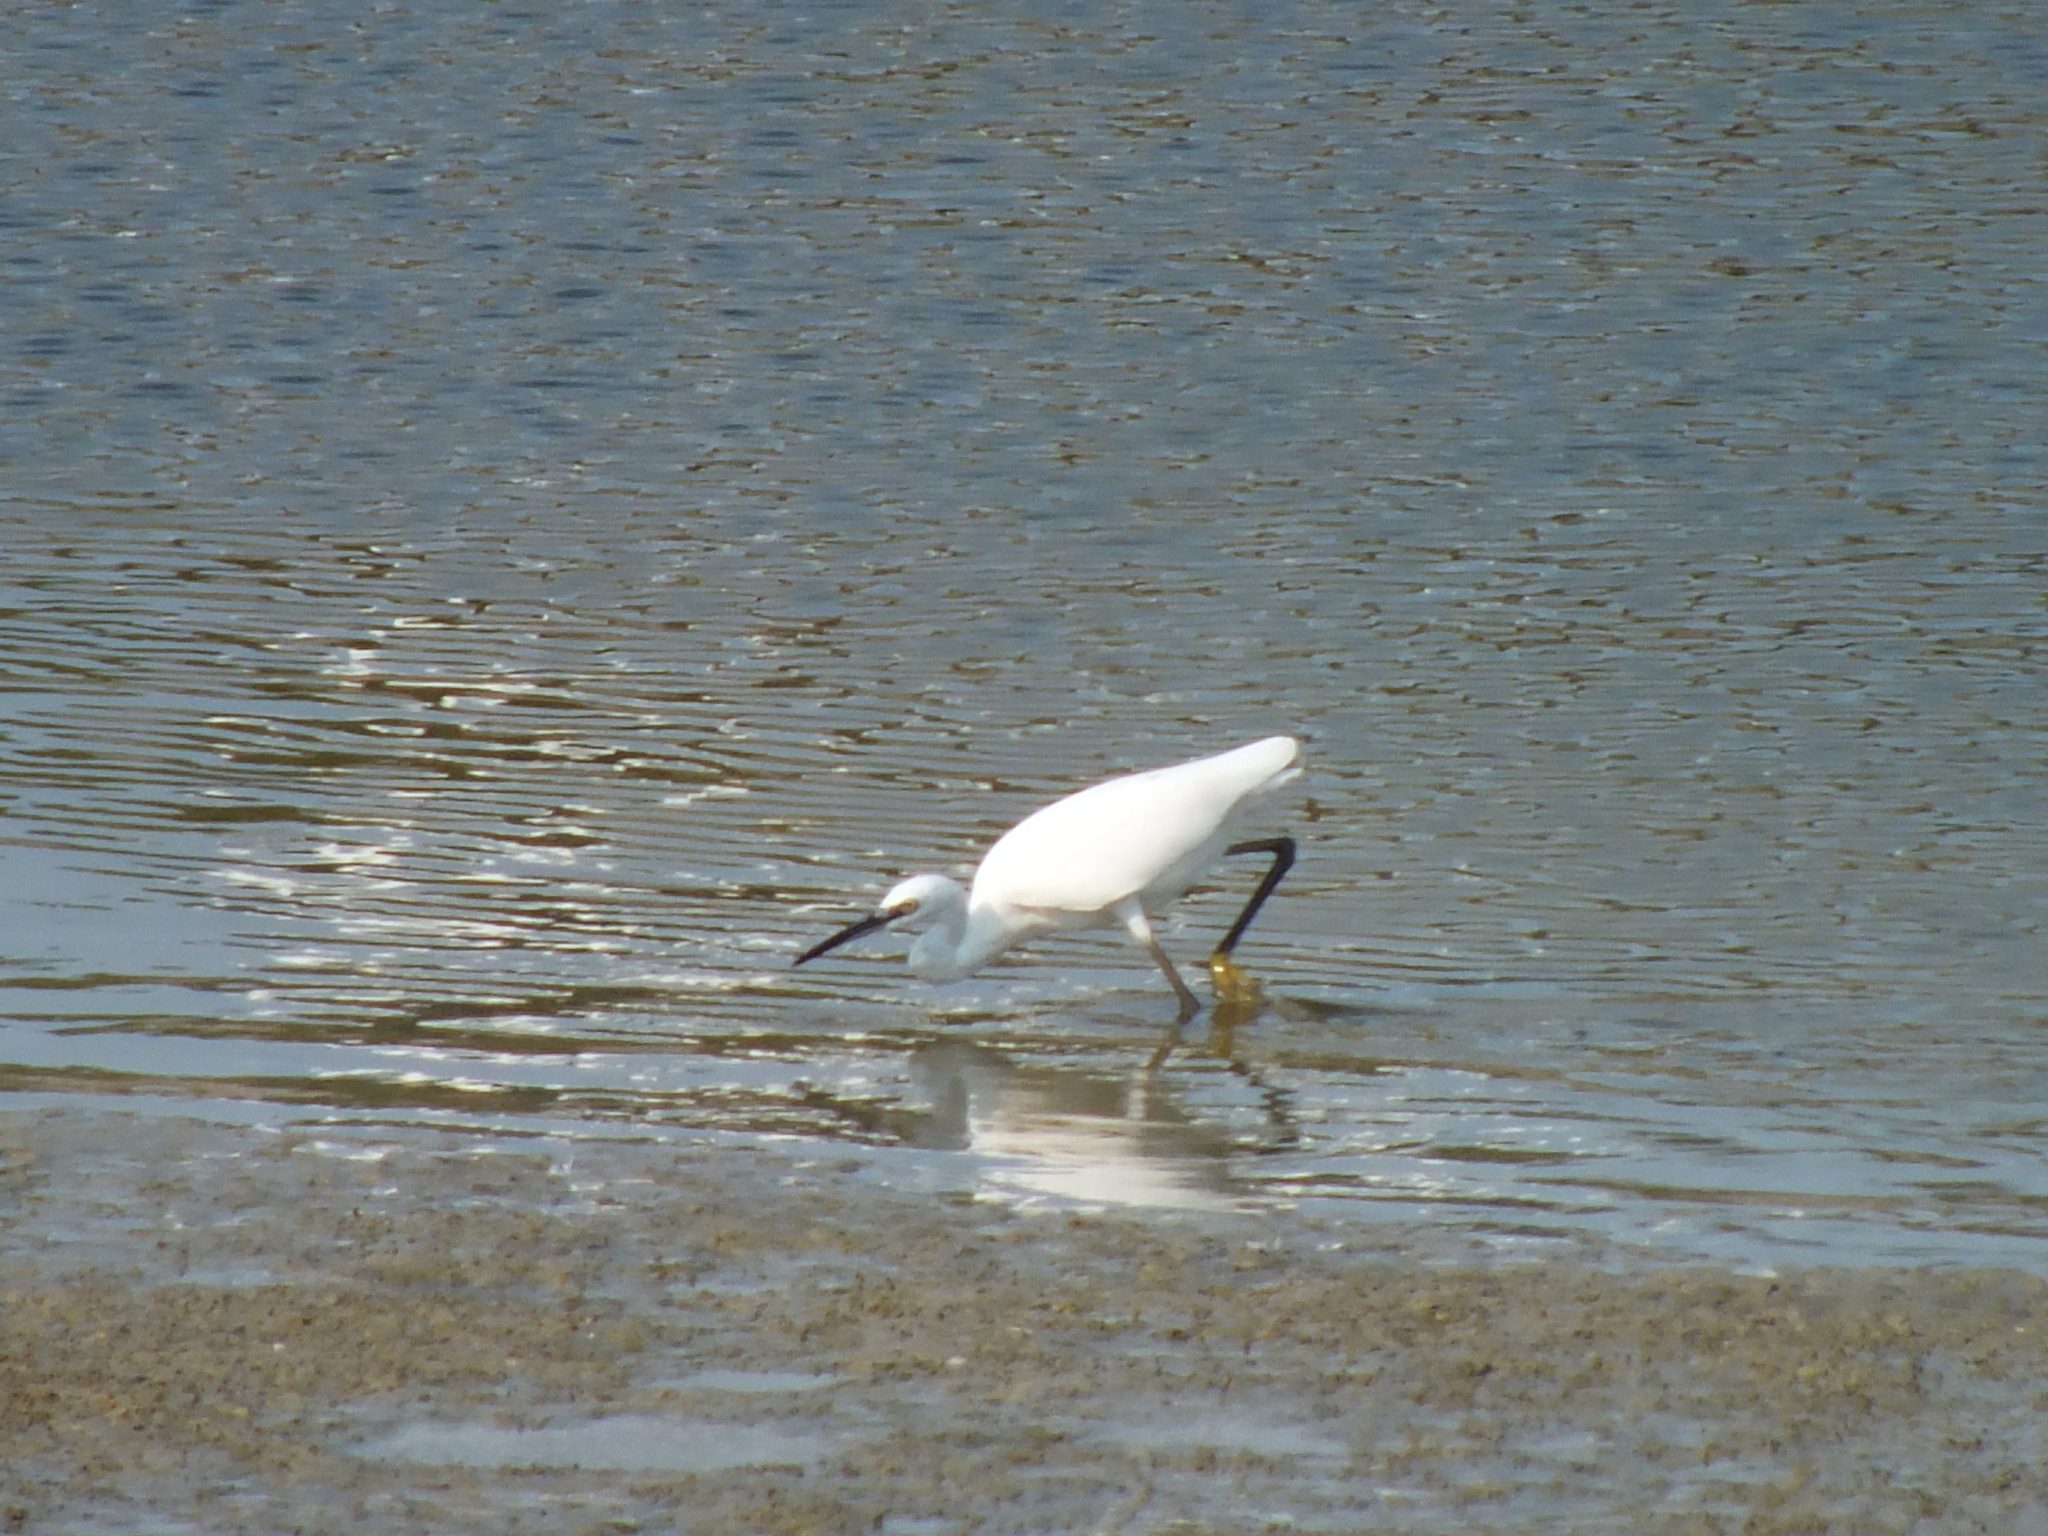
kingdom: Animalia
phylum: Chordata
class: Aves
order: Pelecaniformes
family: Ardeidae
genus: Egretta
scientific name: Egretta garzetta
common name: Little egret
